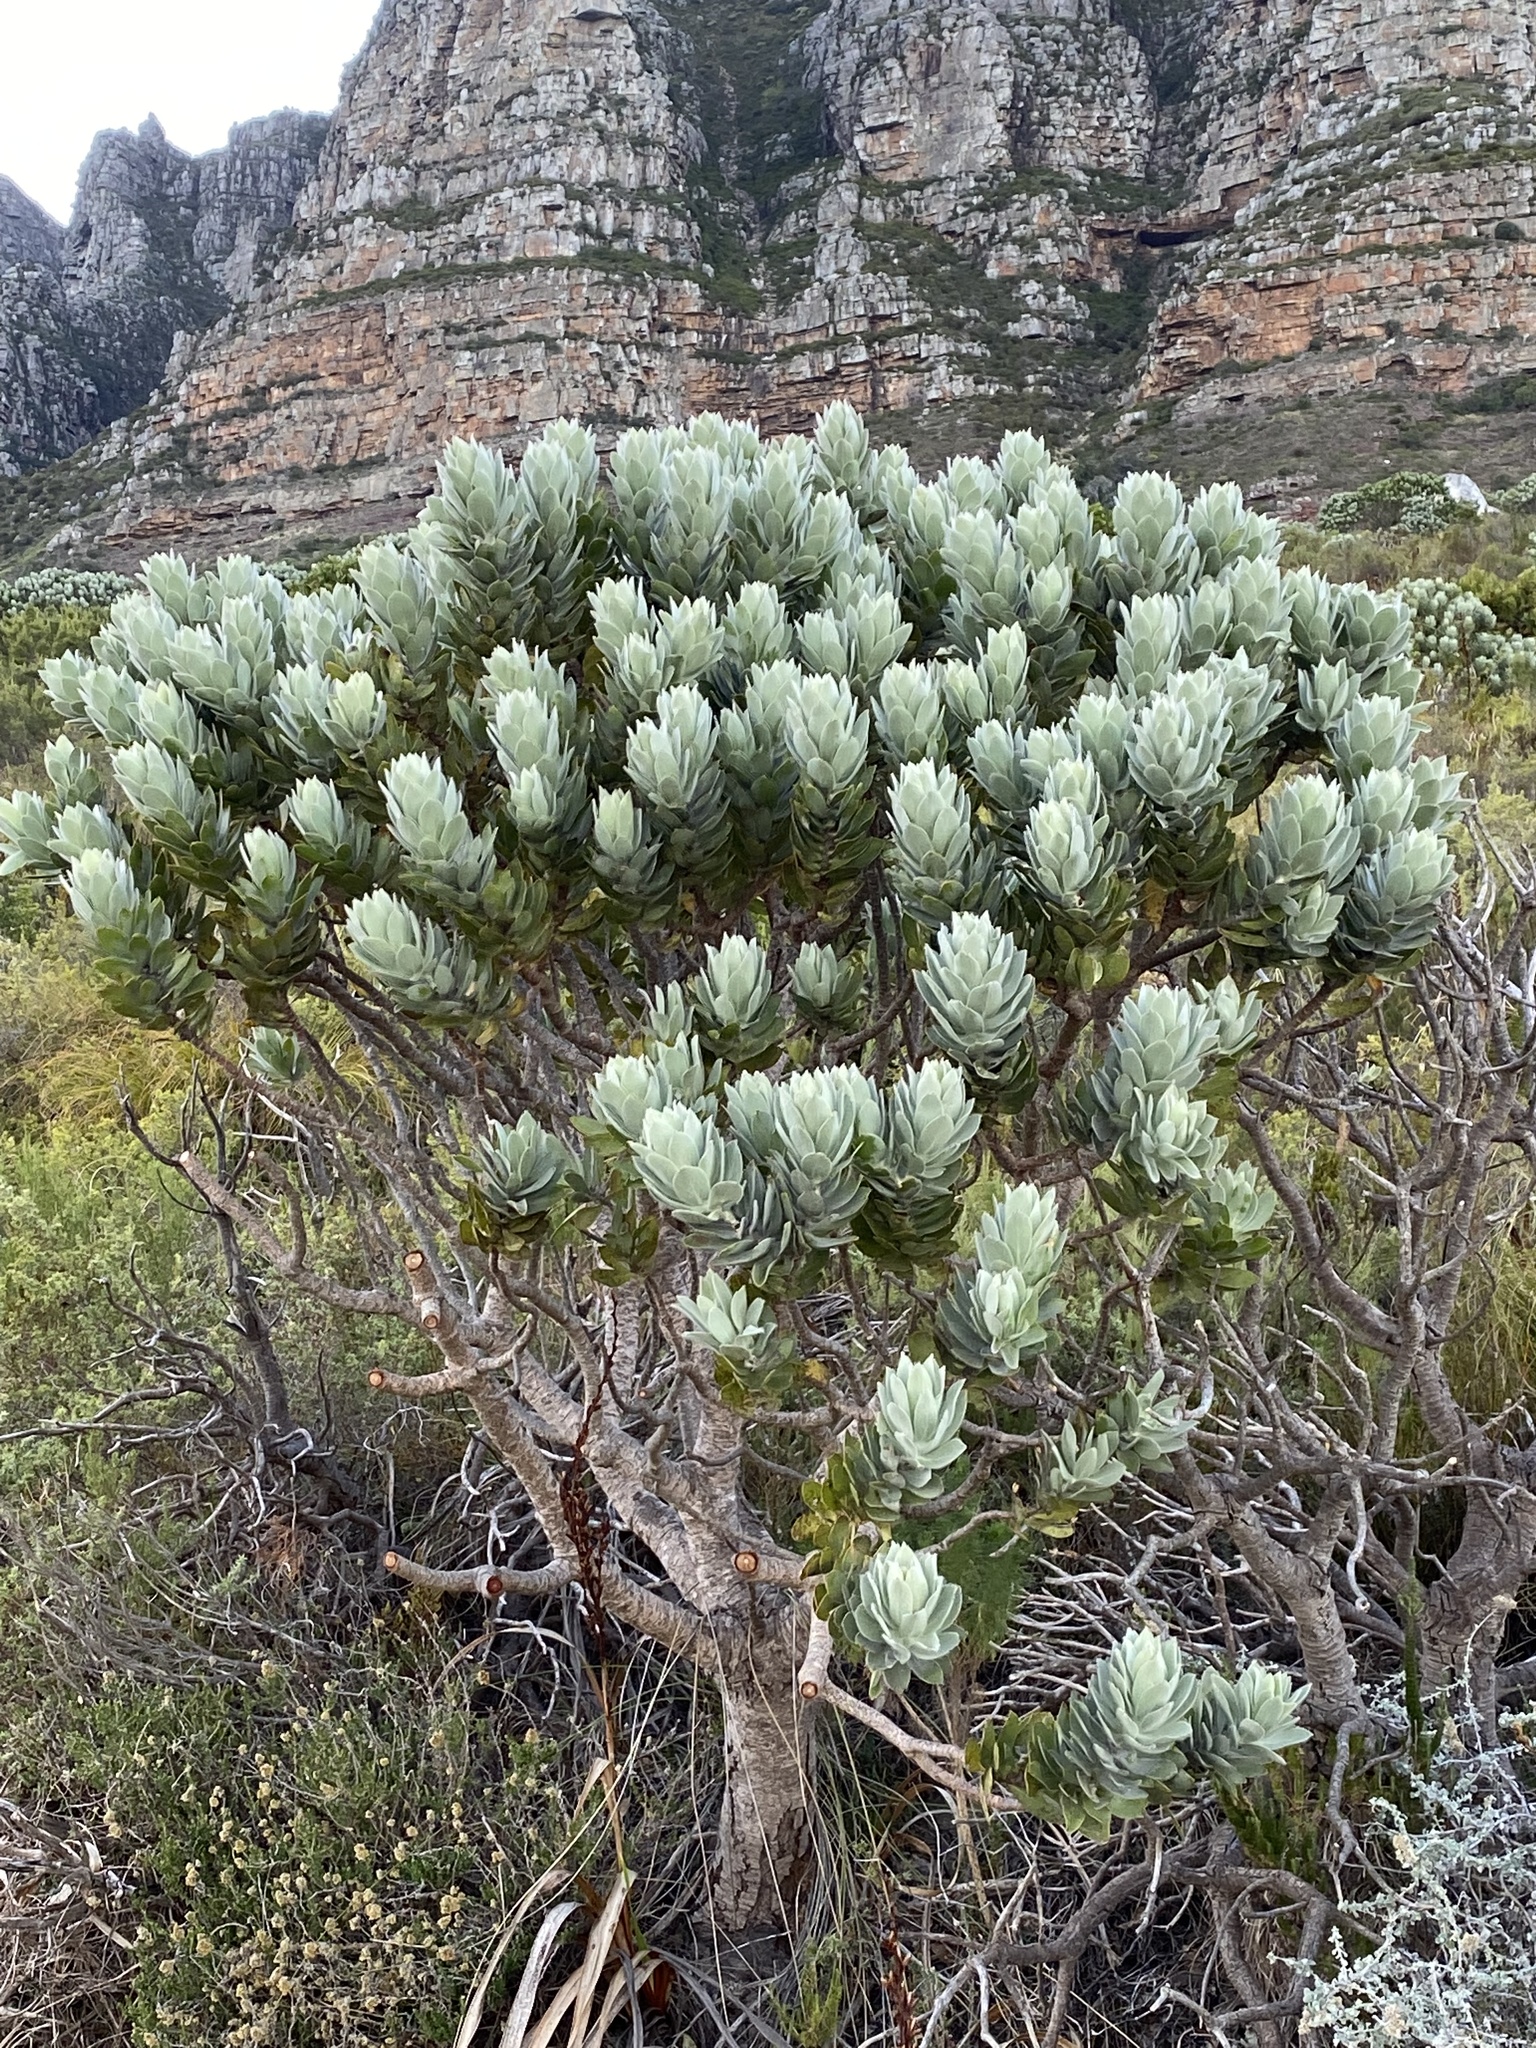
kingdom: Plantae
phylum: Tracheophyta
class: Magnoliopsida
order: Proteales
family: Proteaceae
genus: Leucospermum
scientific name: Leucospermum conocarpodendron
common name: Tree pincushion
